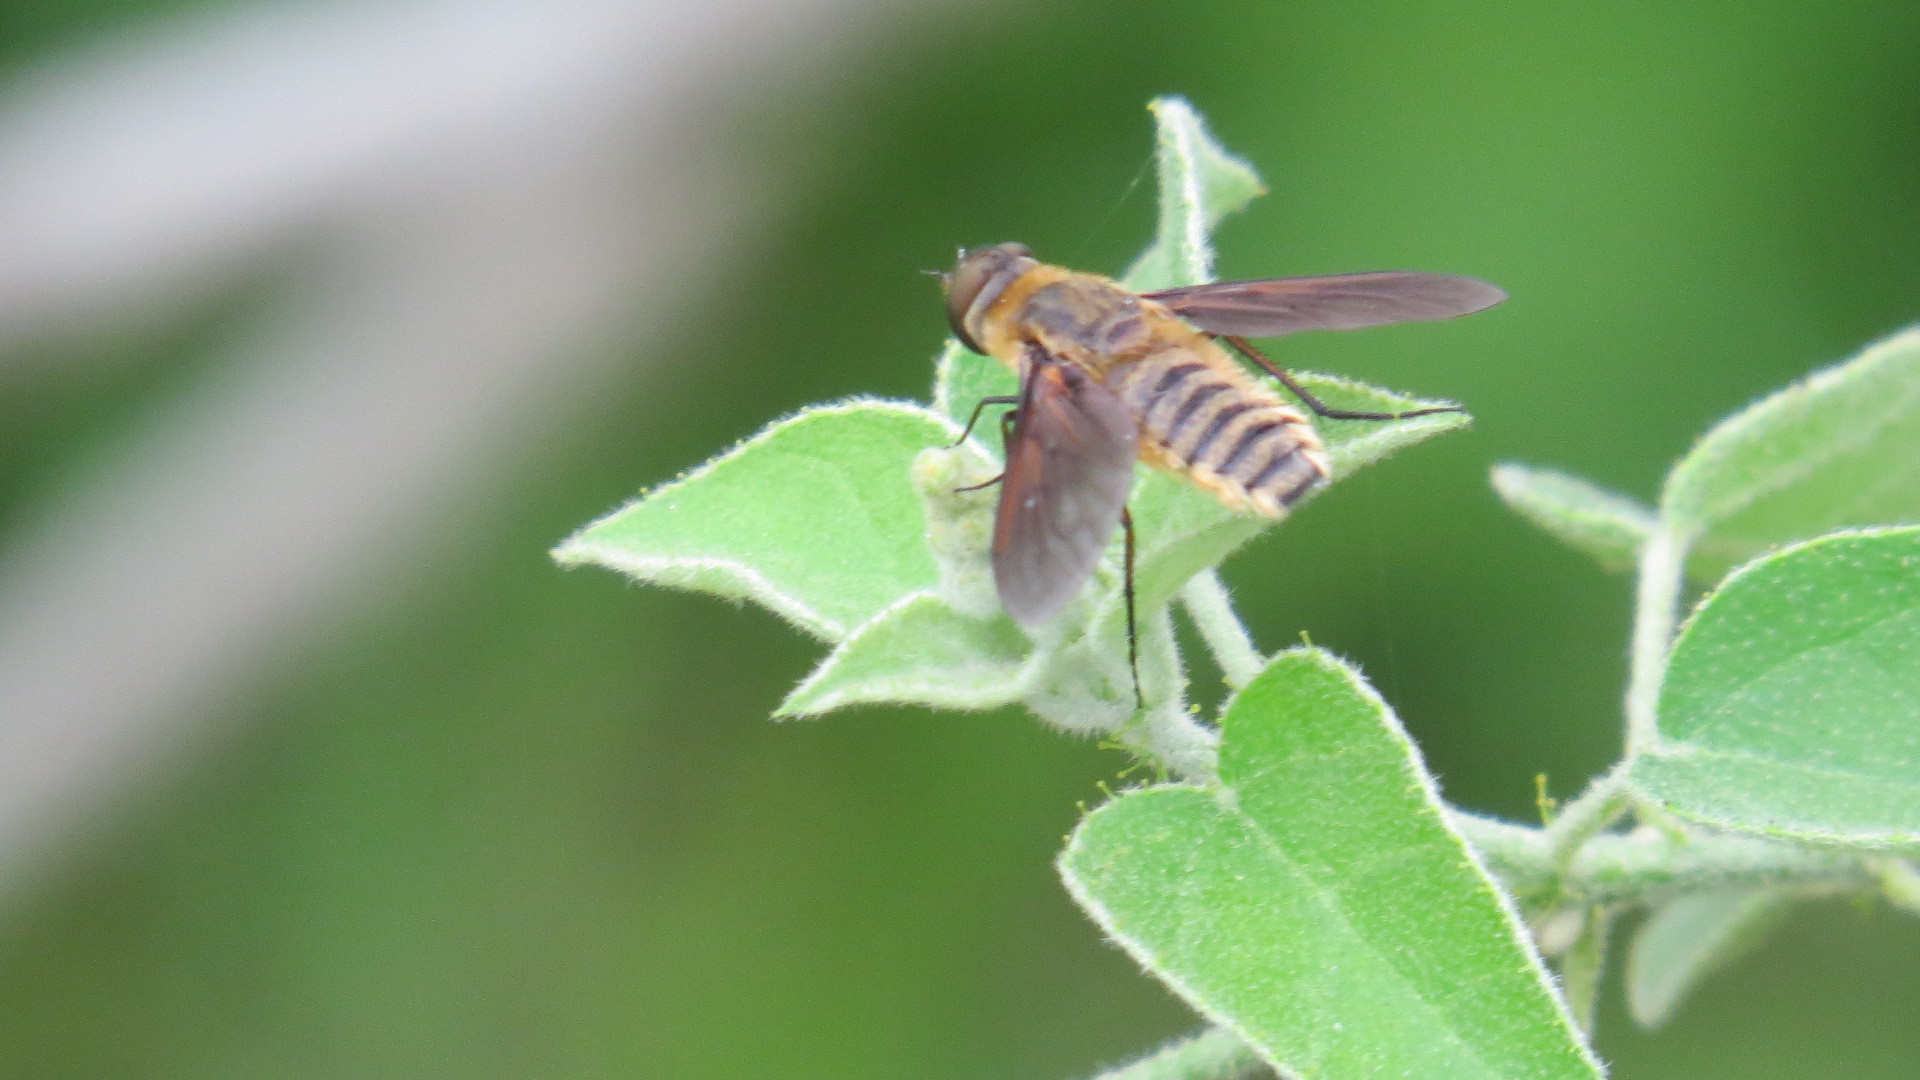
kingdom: Animalia
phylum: Arthropoda
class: Insecta
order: Diptera
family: Bombyliidae
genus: Poecilanthrax
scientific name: Poecilanthrax lucifer
